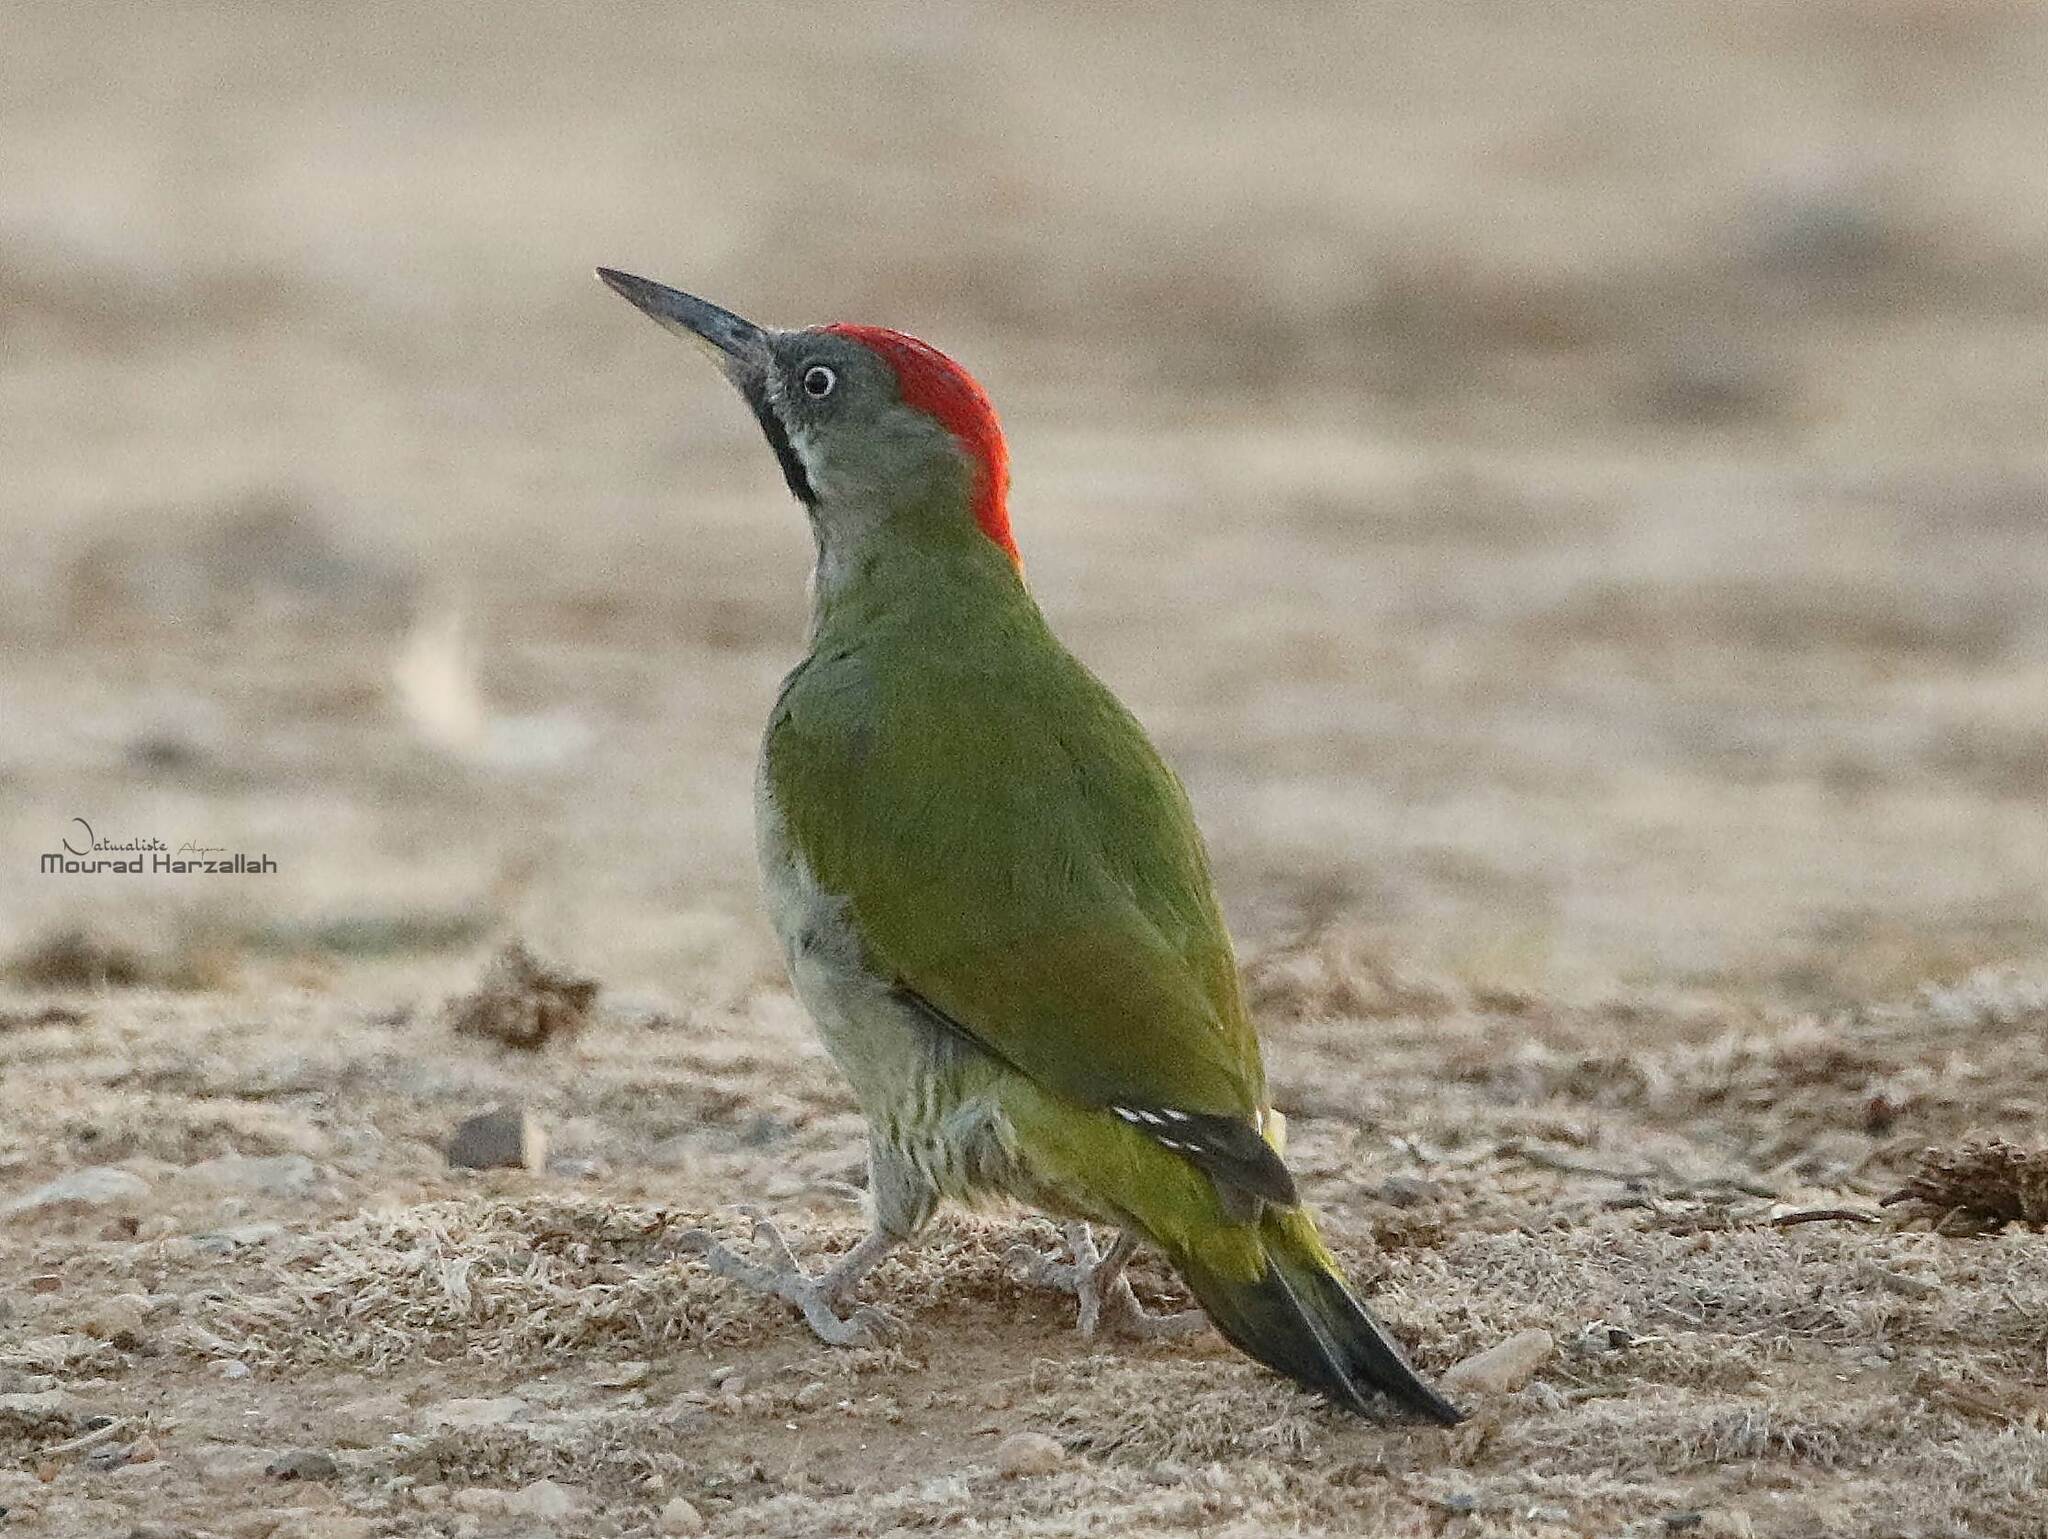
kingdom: Animalia
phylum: Chordata
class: Aves
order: Piciformes
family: Picidae
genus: Picus
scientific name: Picus vaillantii
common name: Levaillant's woodpecker
